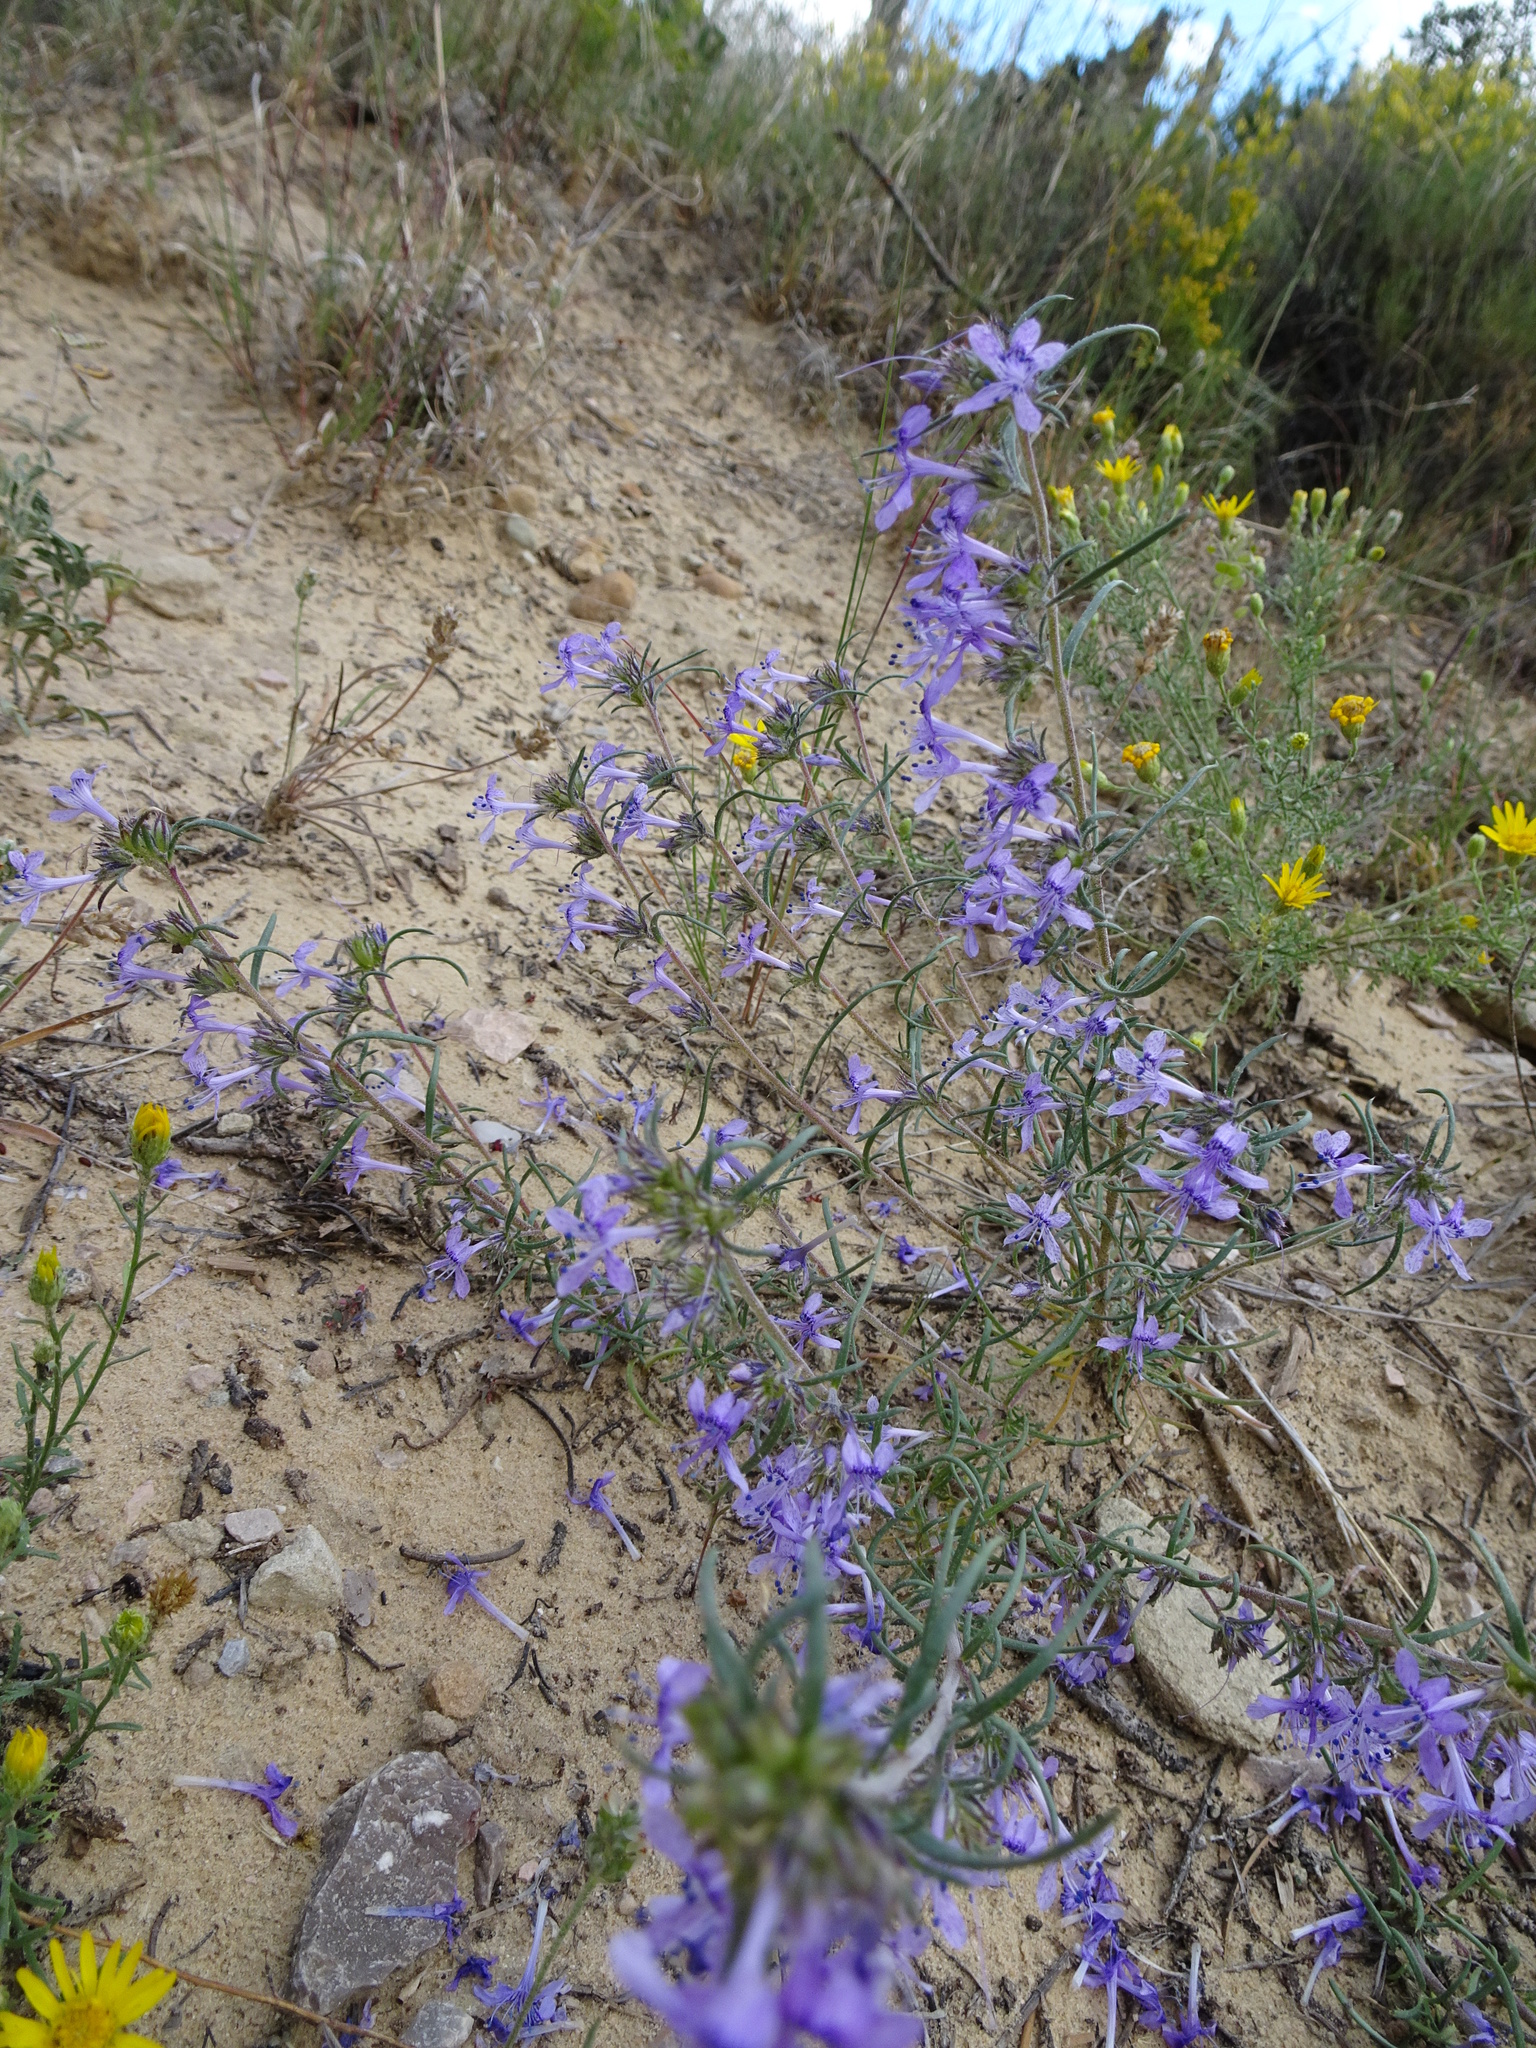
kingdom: Plantae
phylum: Tracheophyta
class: Magnoliopsida
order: Ericales
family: Polemoniaceae
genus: Ipomopsis
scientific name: Ipomopsis multiflora
